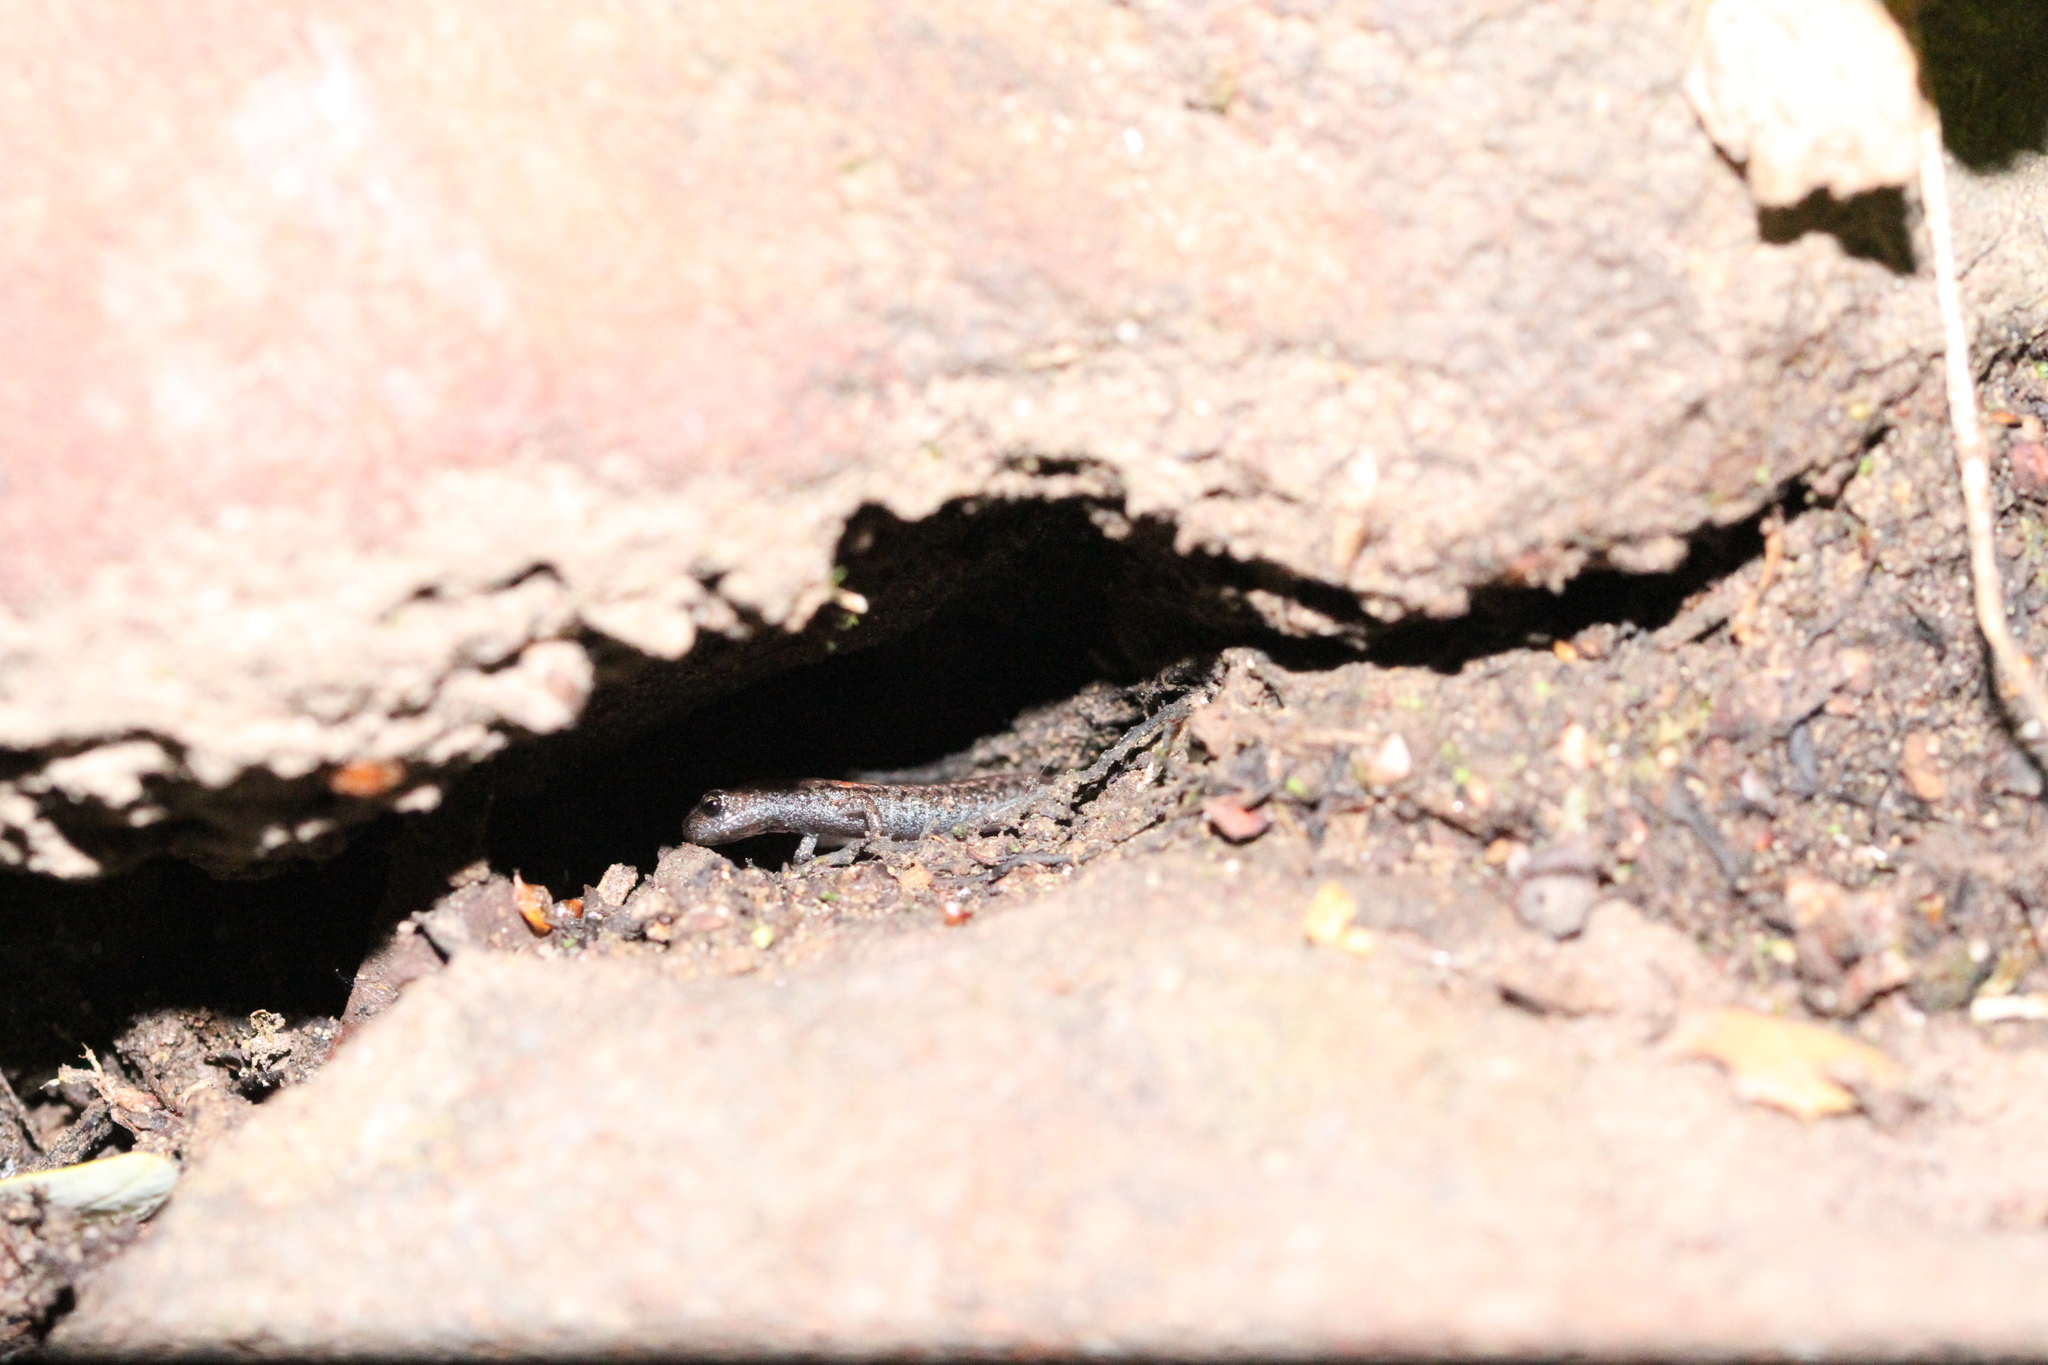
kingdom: Animalia
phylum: Chordata
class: Amphibia
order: Caudata
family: Plethodontidae
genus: Batrachoseps
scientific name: Batrachoseps attenuatus
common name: California slender salamander
